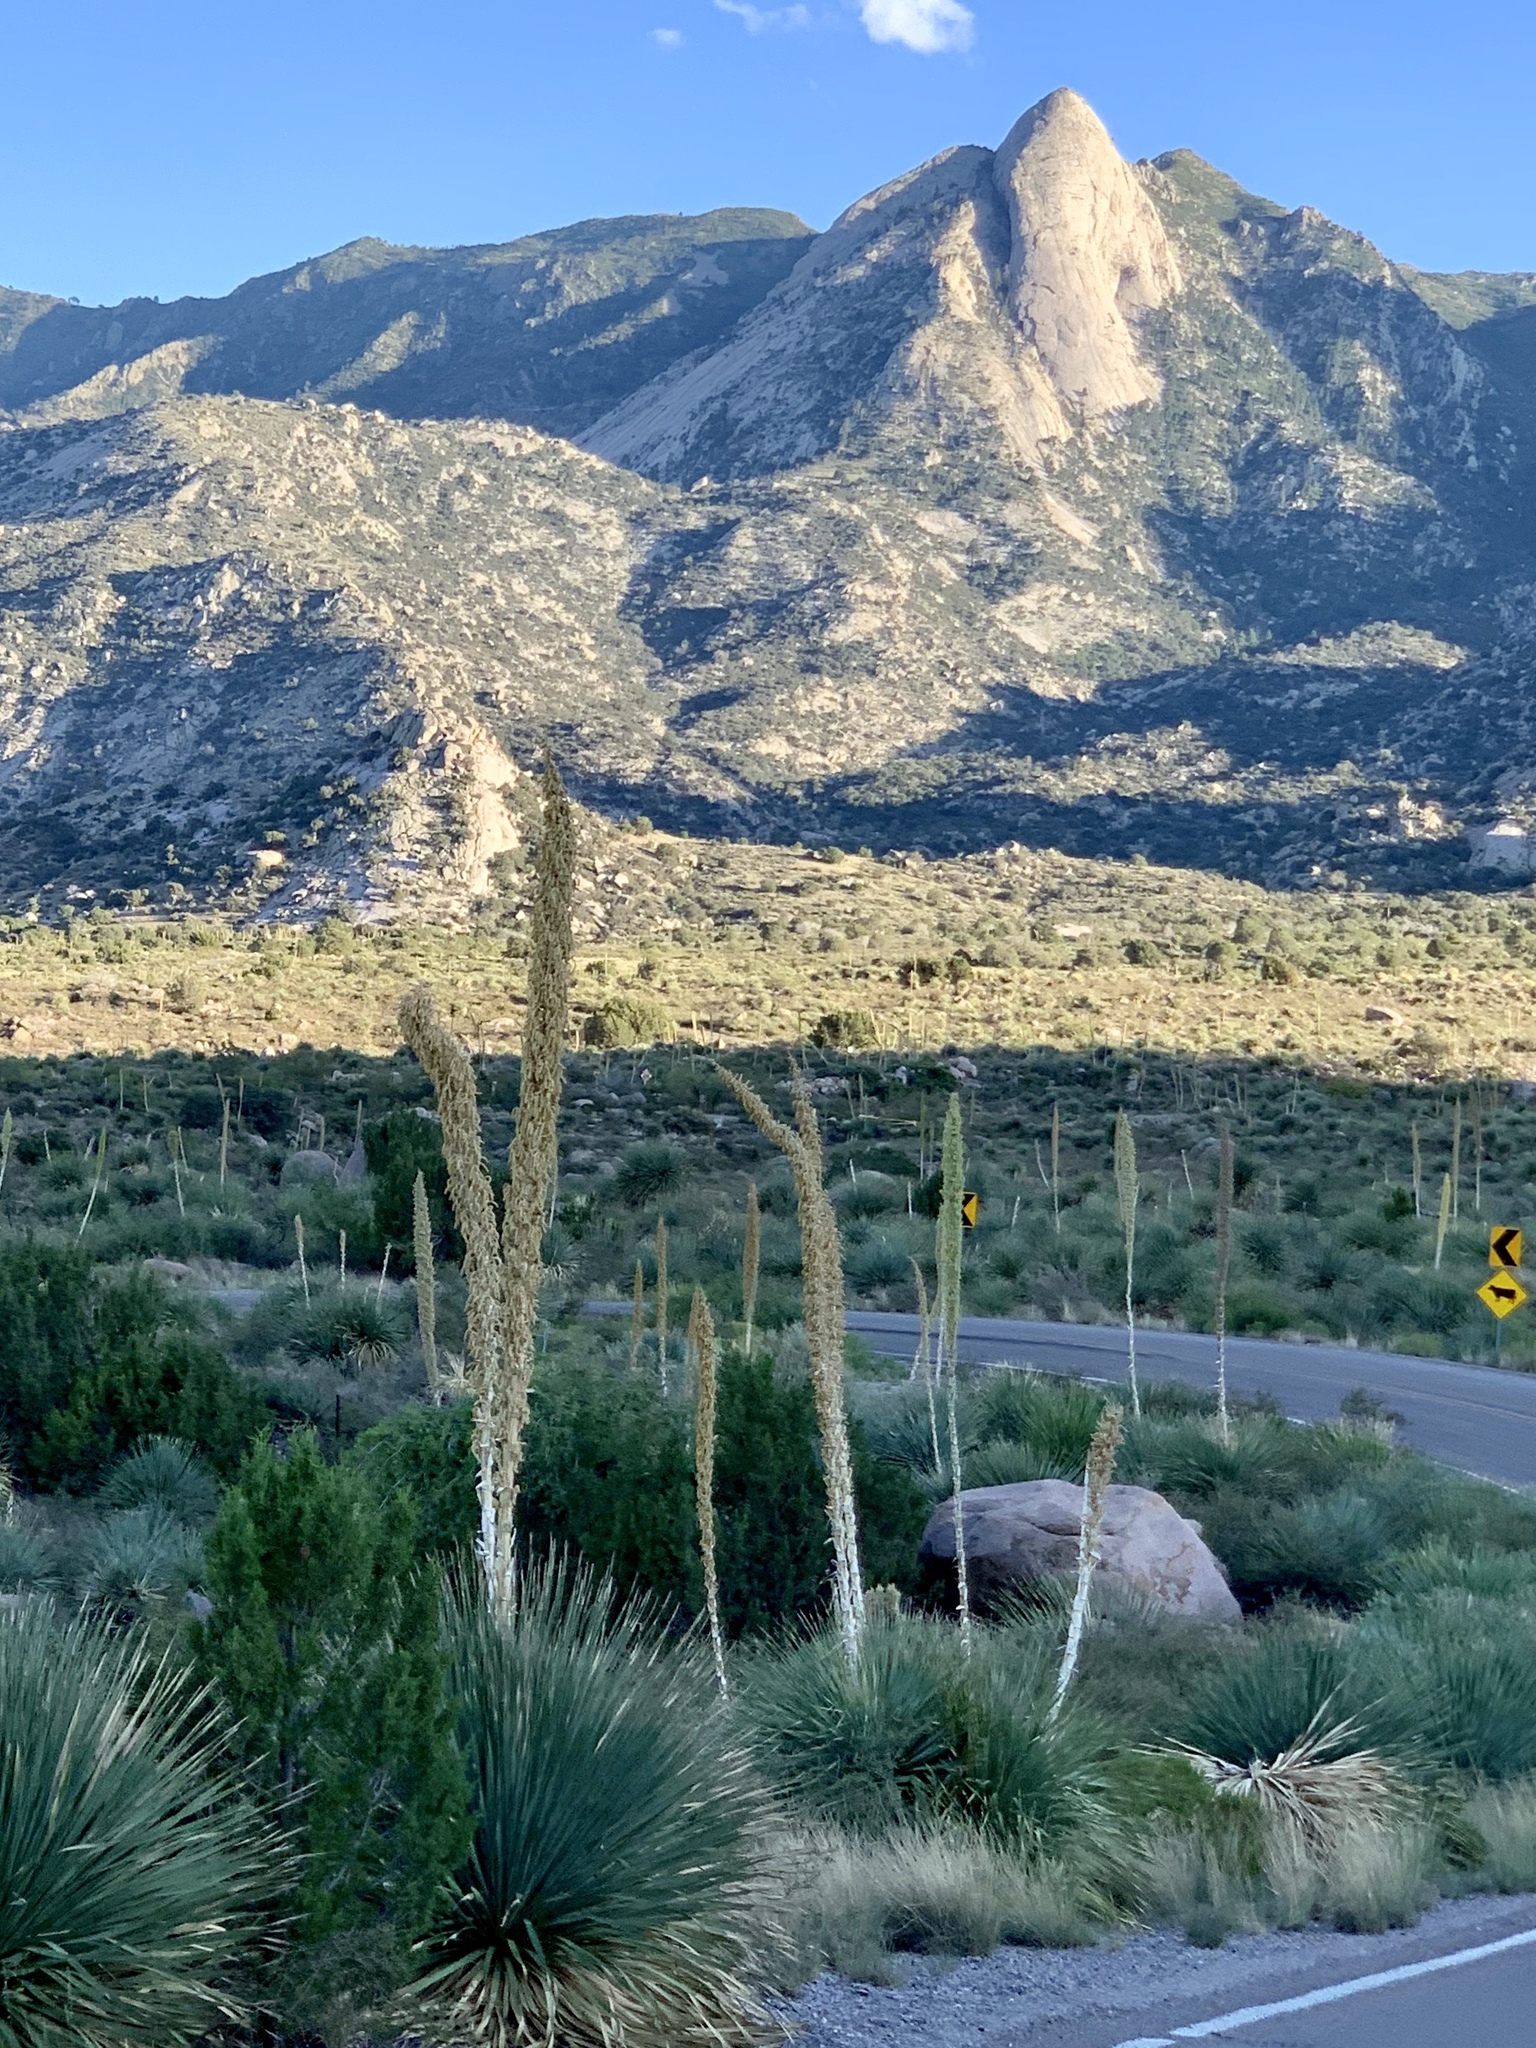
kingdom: Plantae
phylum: Tracheophyta
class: Liliopsida
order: Asparagales
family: Asparagaceae
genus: Dasylirion
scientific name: Dasylirion wheeleri
